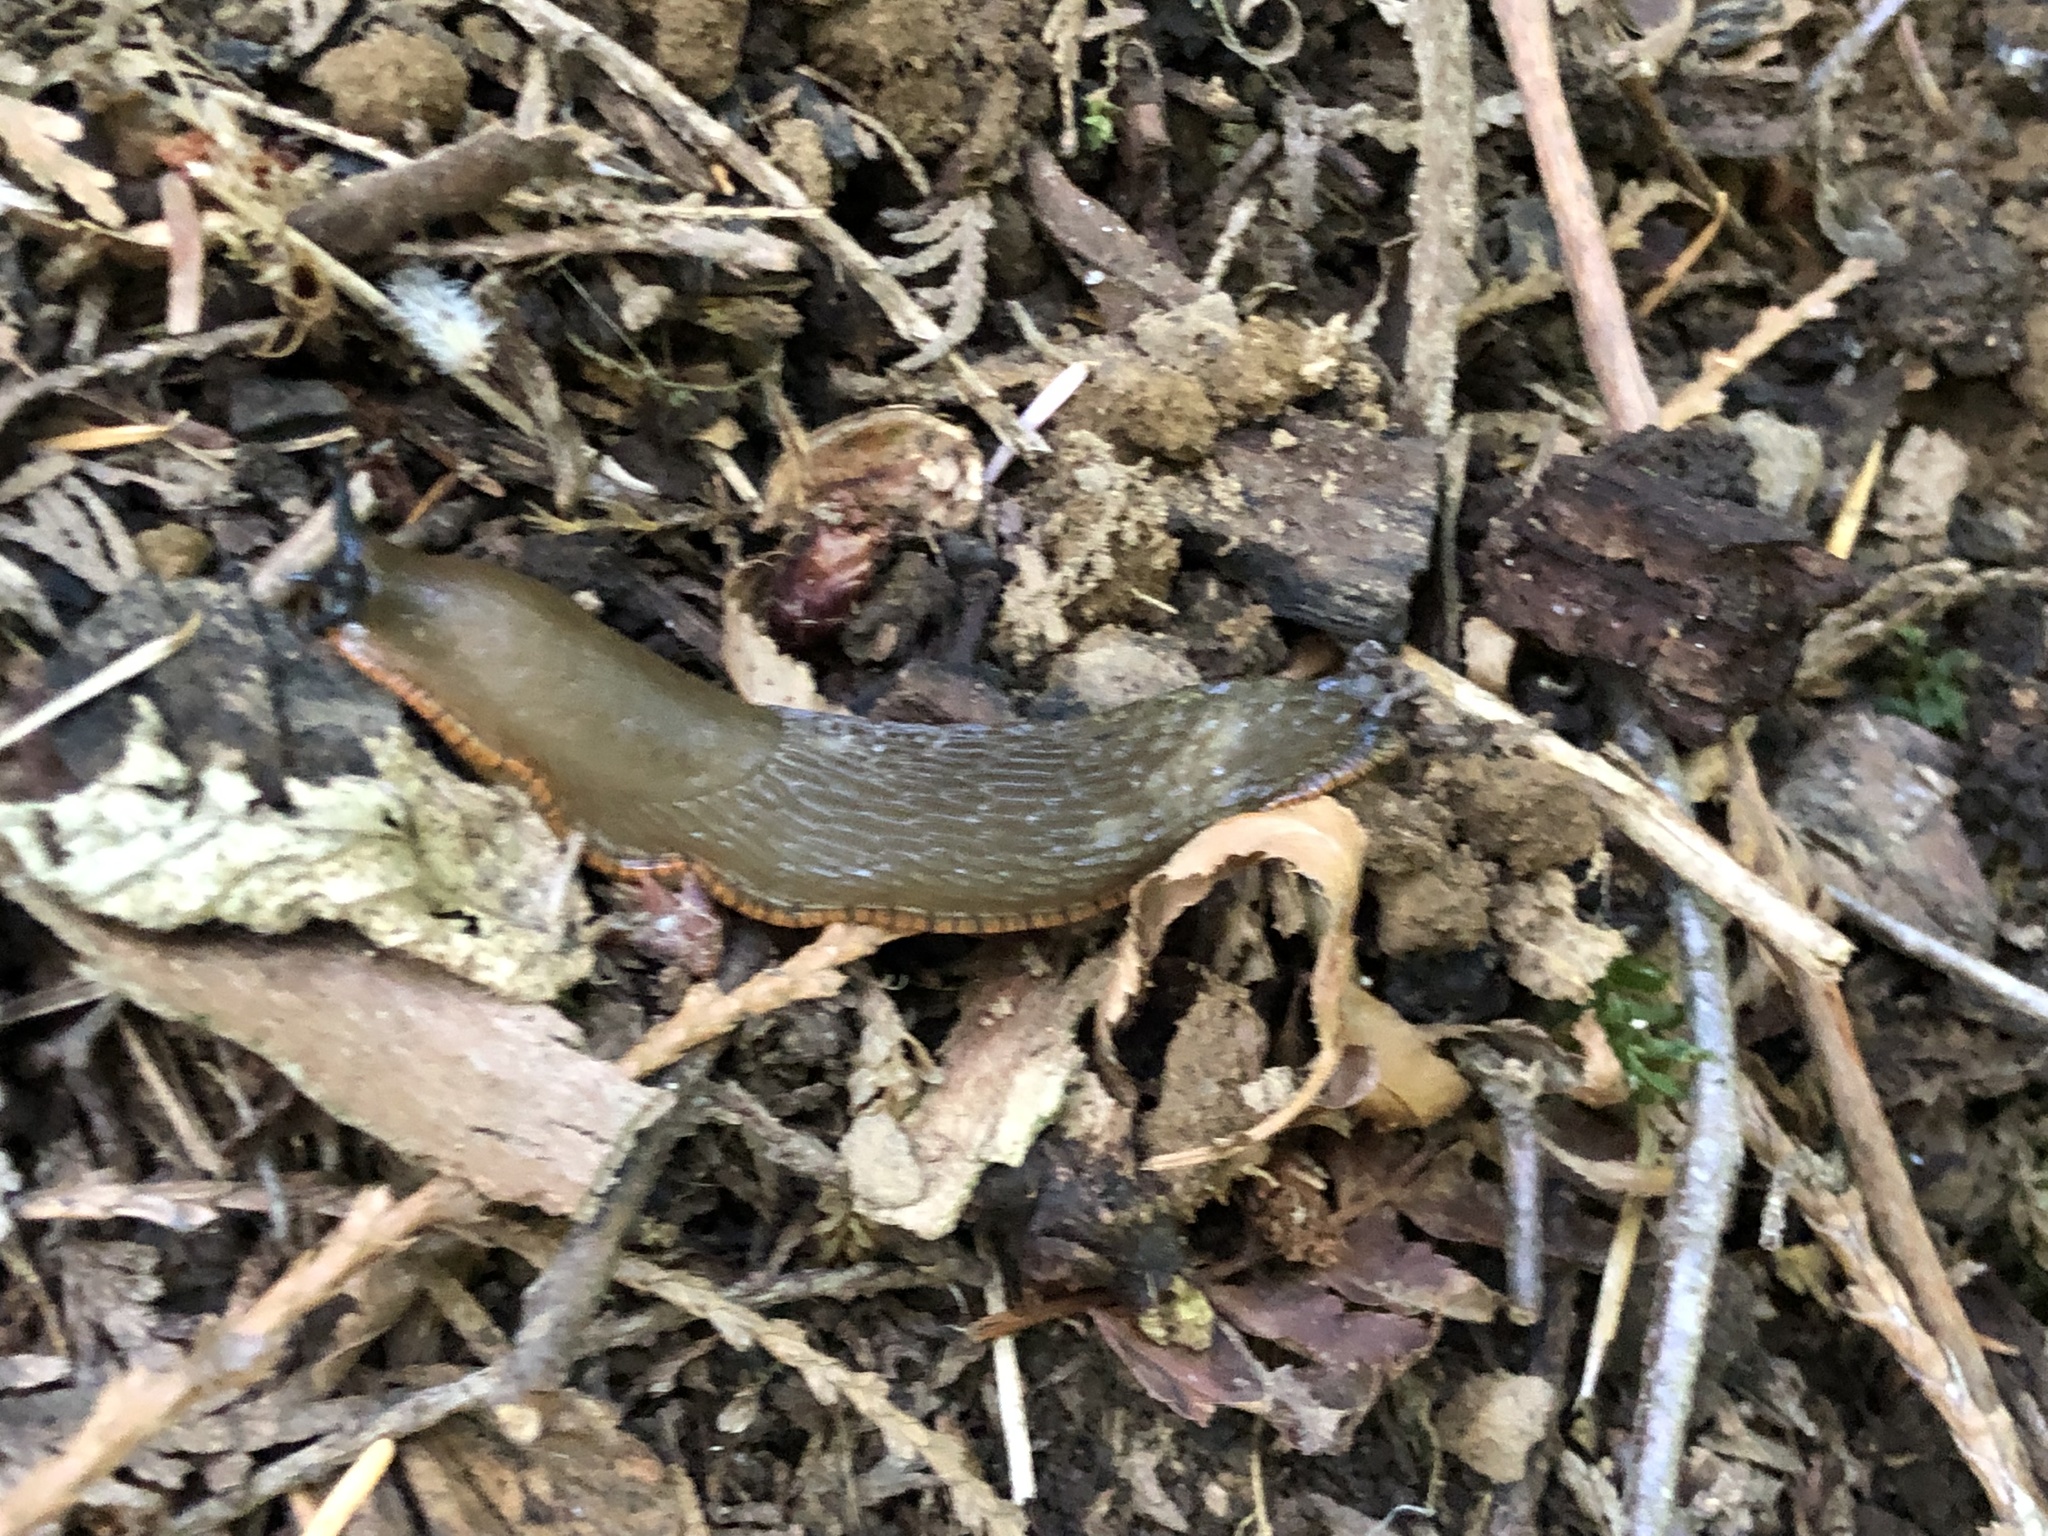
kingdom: Animalia
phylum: Mollusca
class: Gastropoda
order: Stylommatophora
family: Arionidae
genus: Arion
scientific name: Arion
